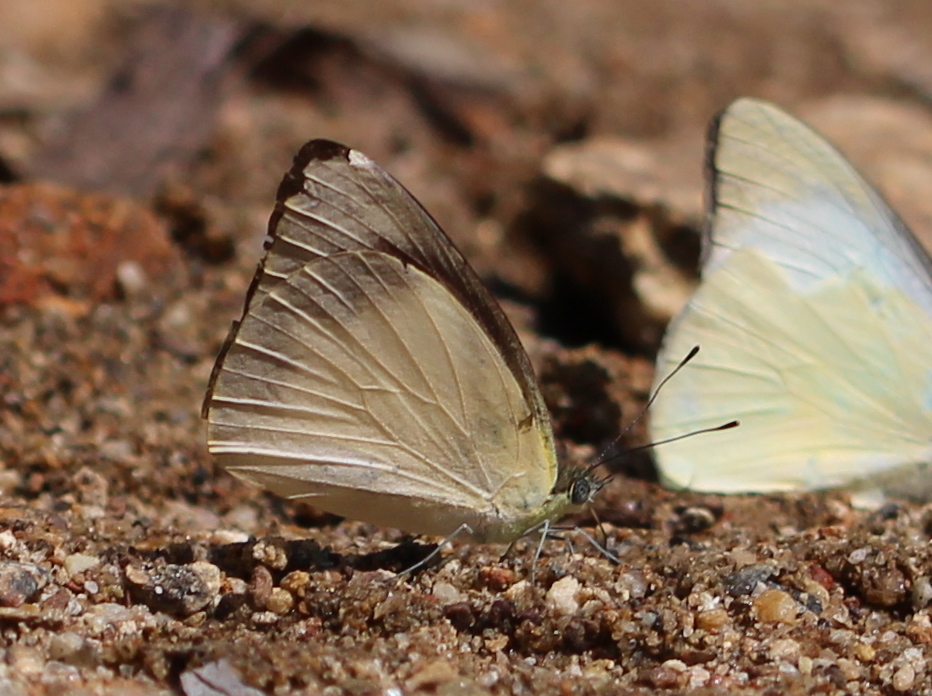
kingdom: Animalia
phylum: Arthropoda
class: Insecta
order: Lepidoptera
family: Pieridae
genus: Appias
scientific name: Appias albina
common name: Common albatross
